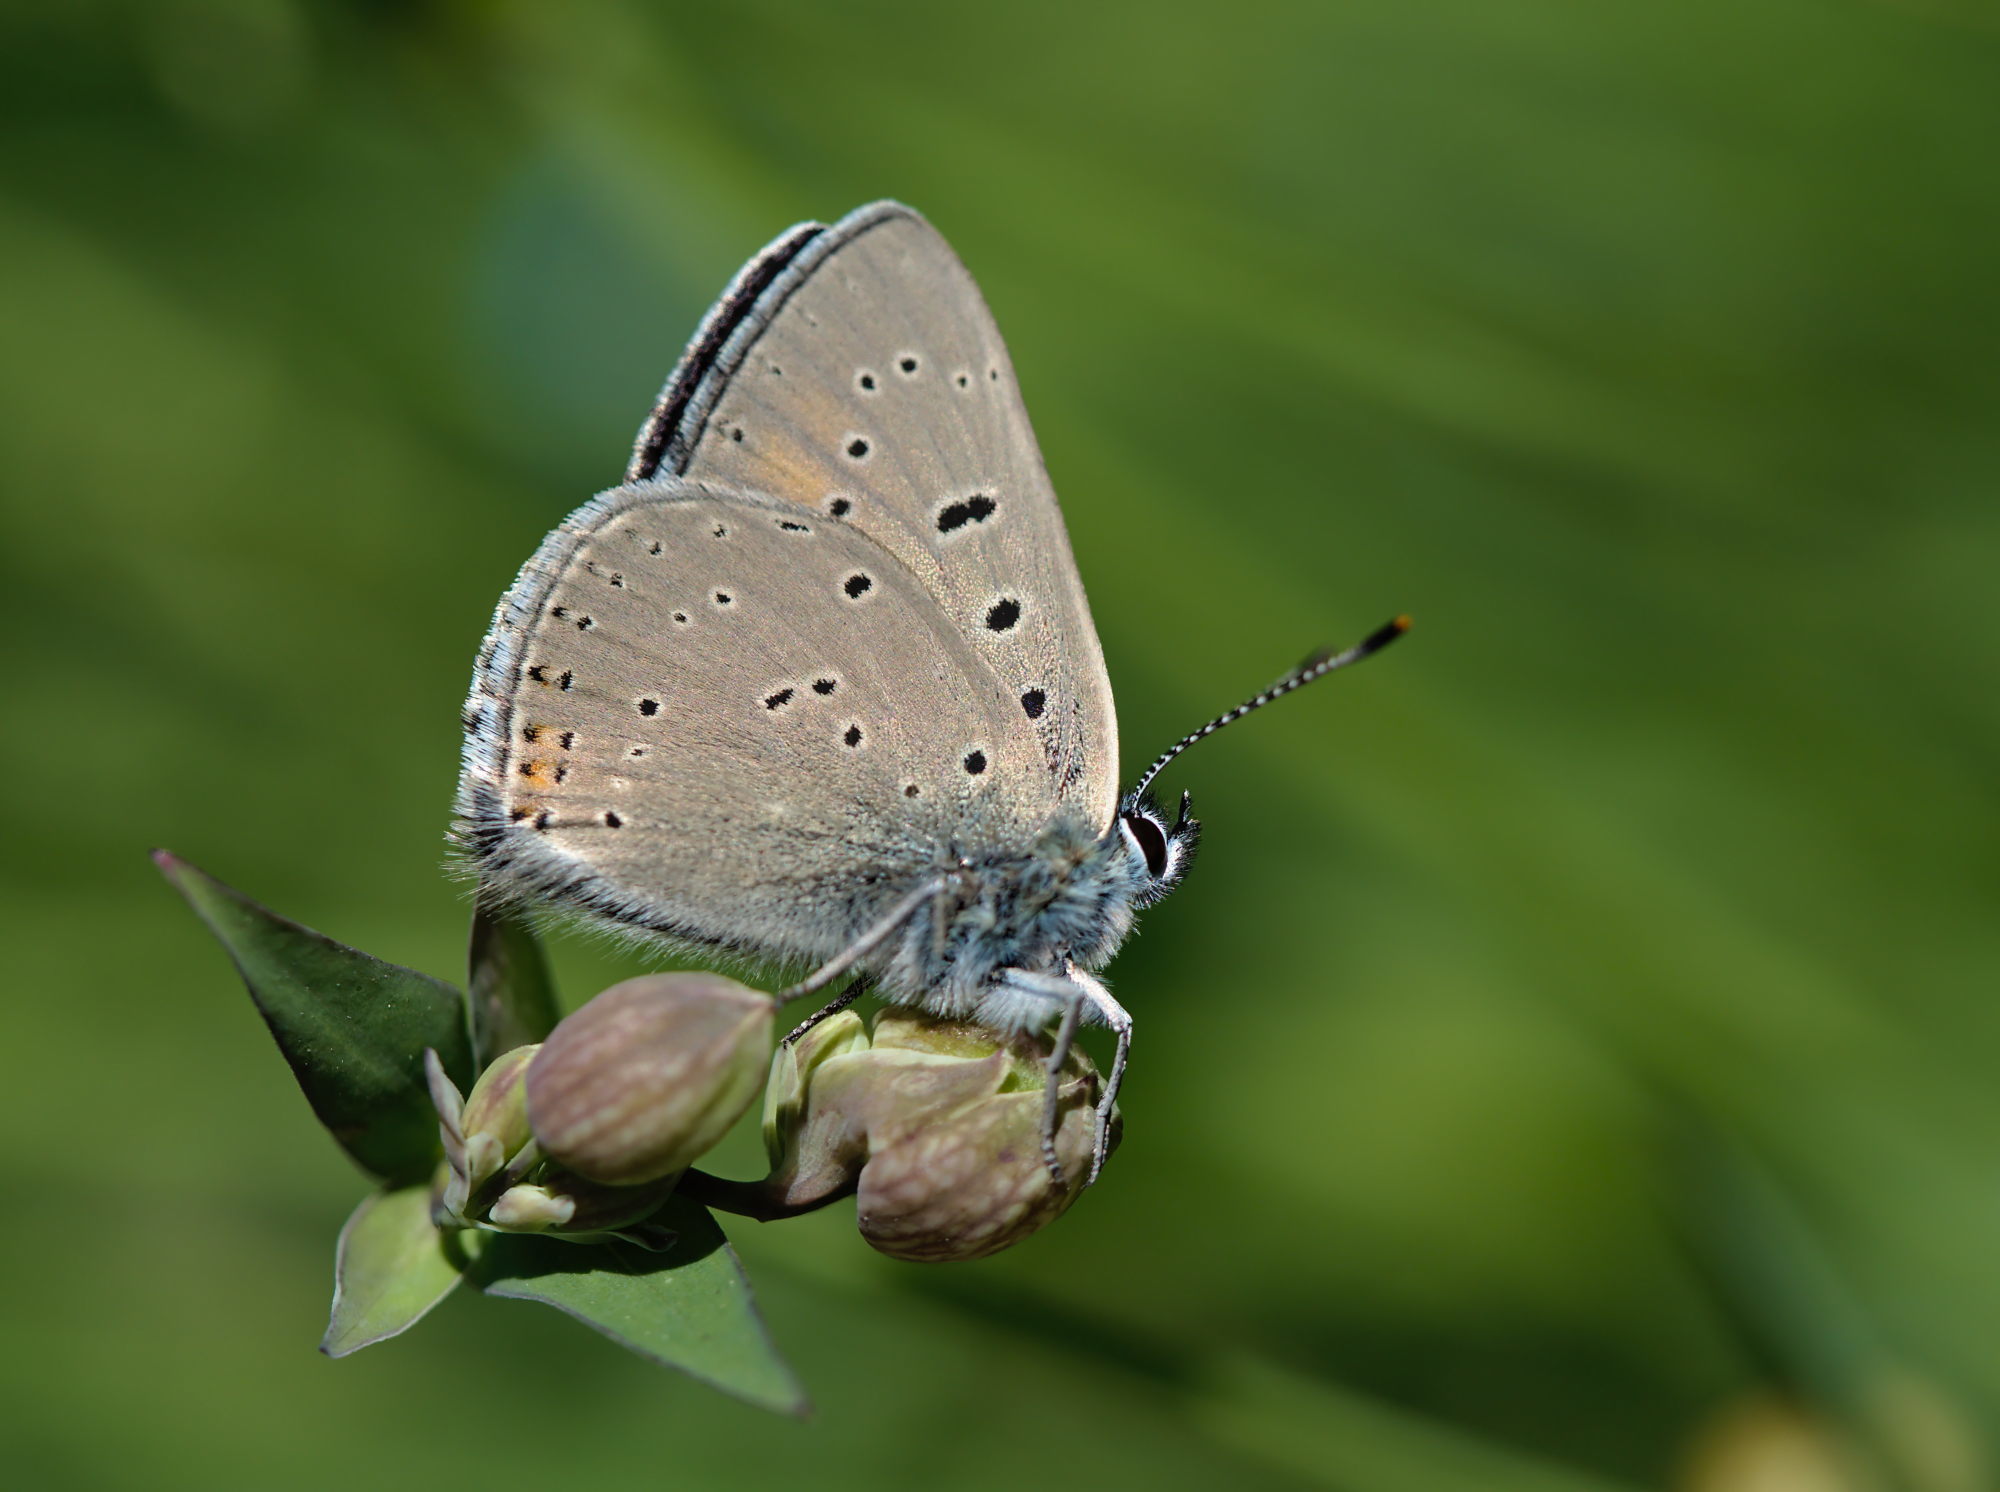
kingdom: Animalia
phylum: Arthropoda
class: Insecta
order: Lepidoptera
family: Lycaenidae
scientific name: Lycaenidae
